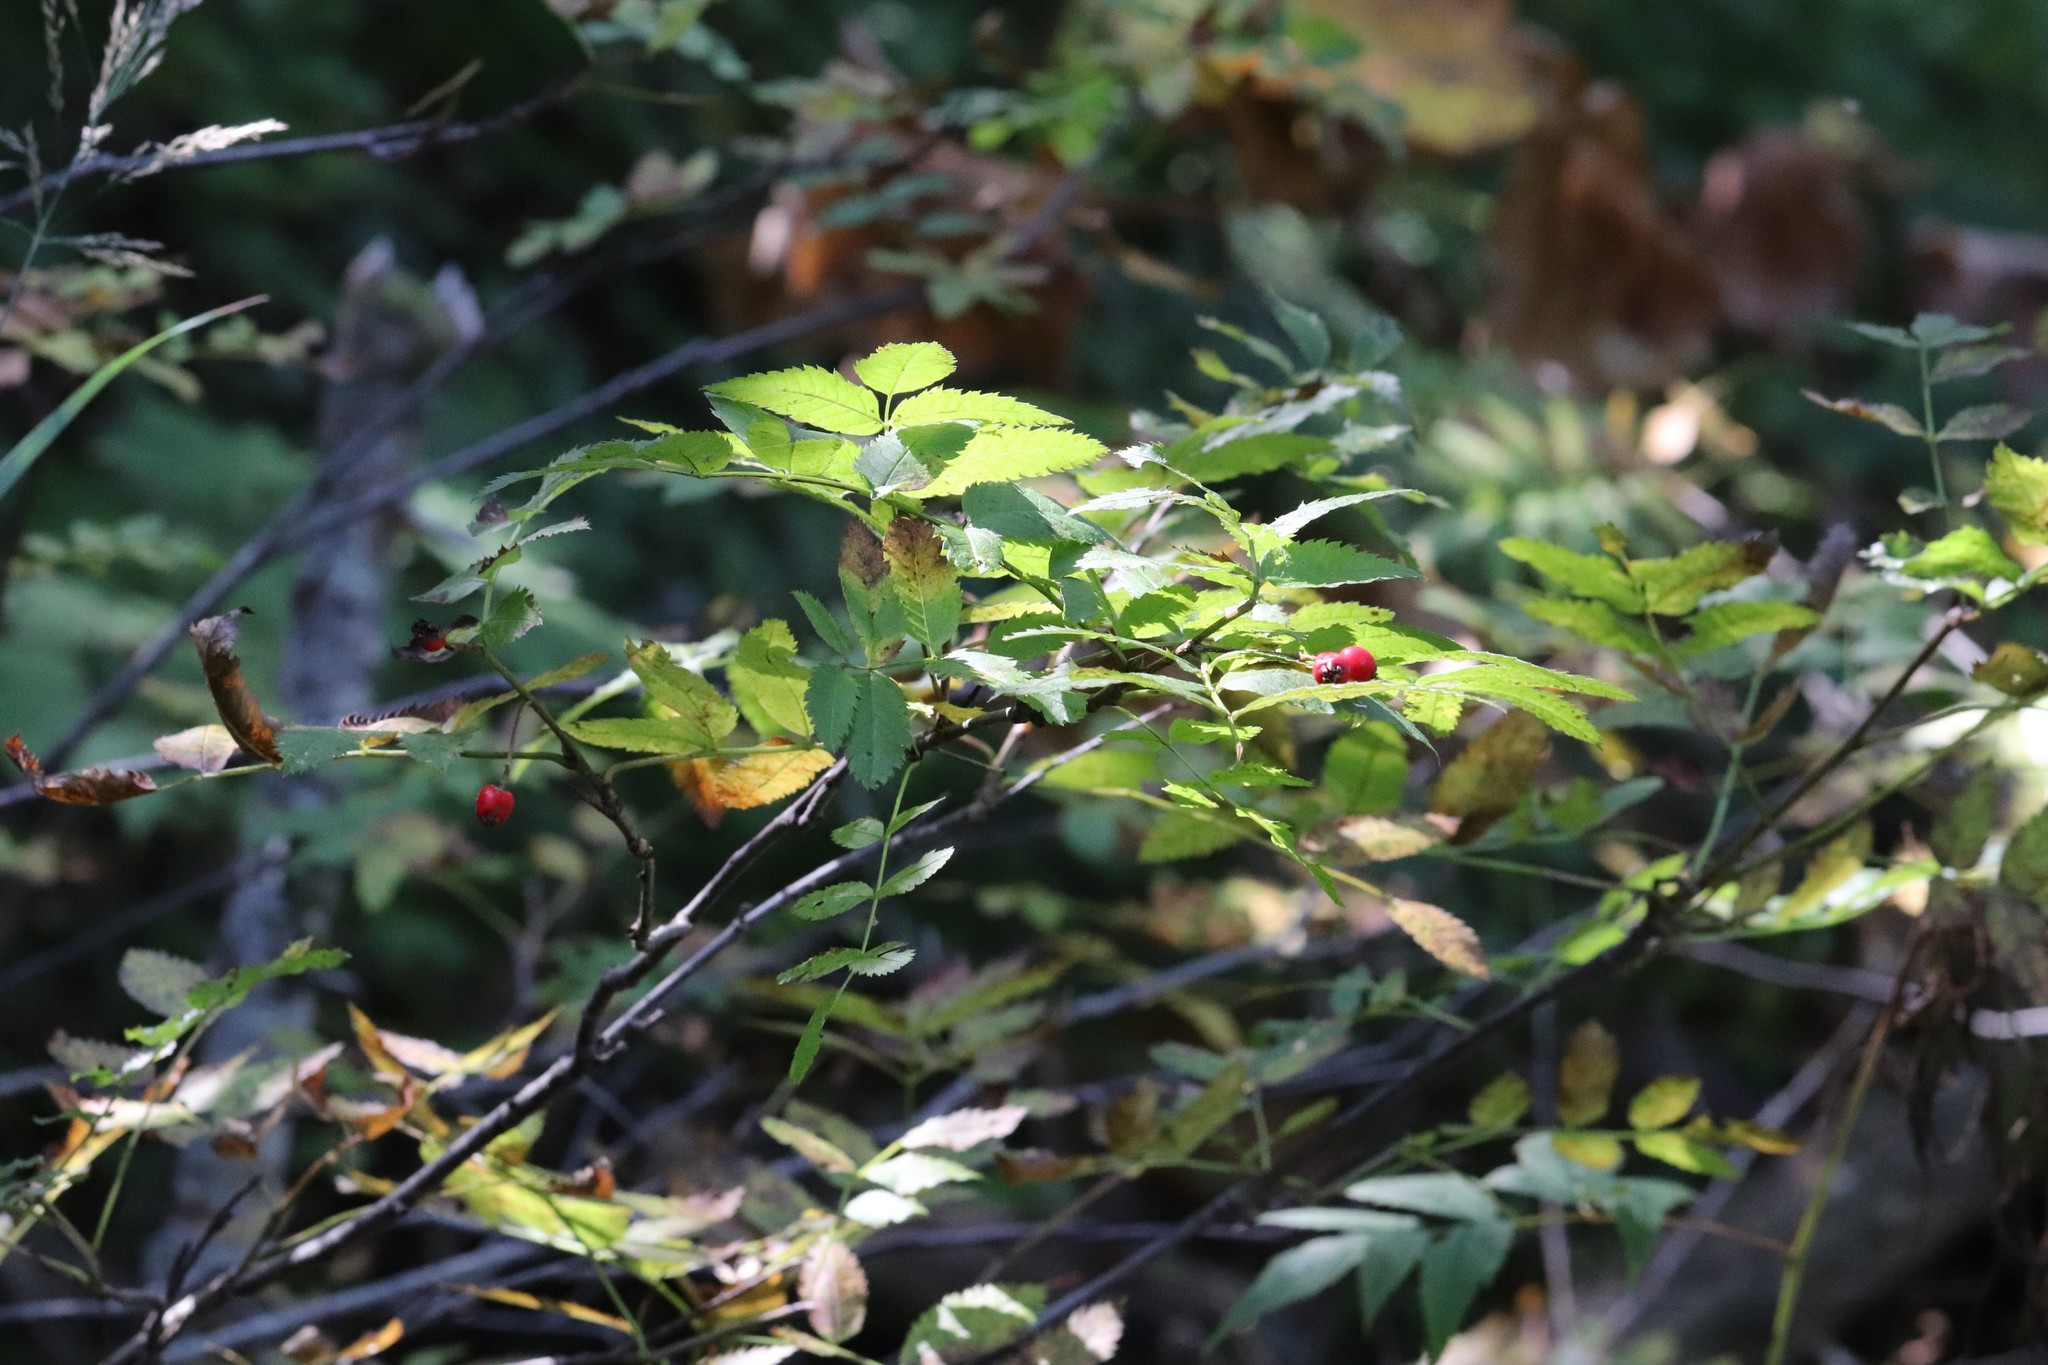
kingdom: Plantae
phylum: Tracheophyta
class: Magnoliopsida
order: Rosales
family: Rosaceae
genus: Sorbus
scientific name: Sorbus sambucifolia
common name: Siberian mountain-ash
